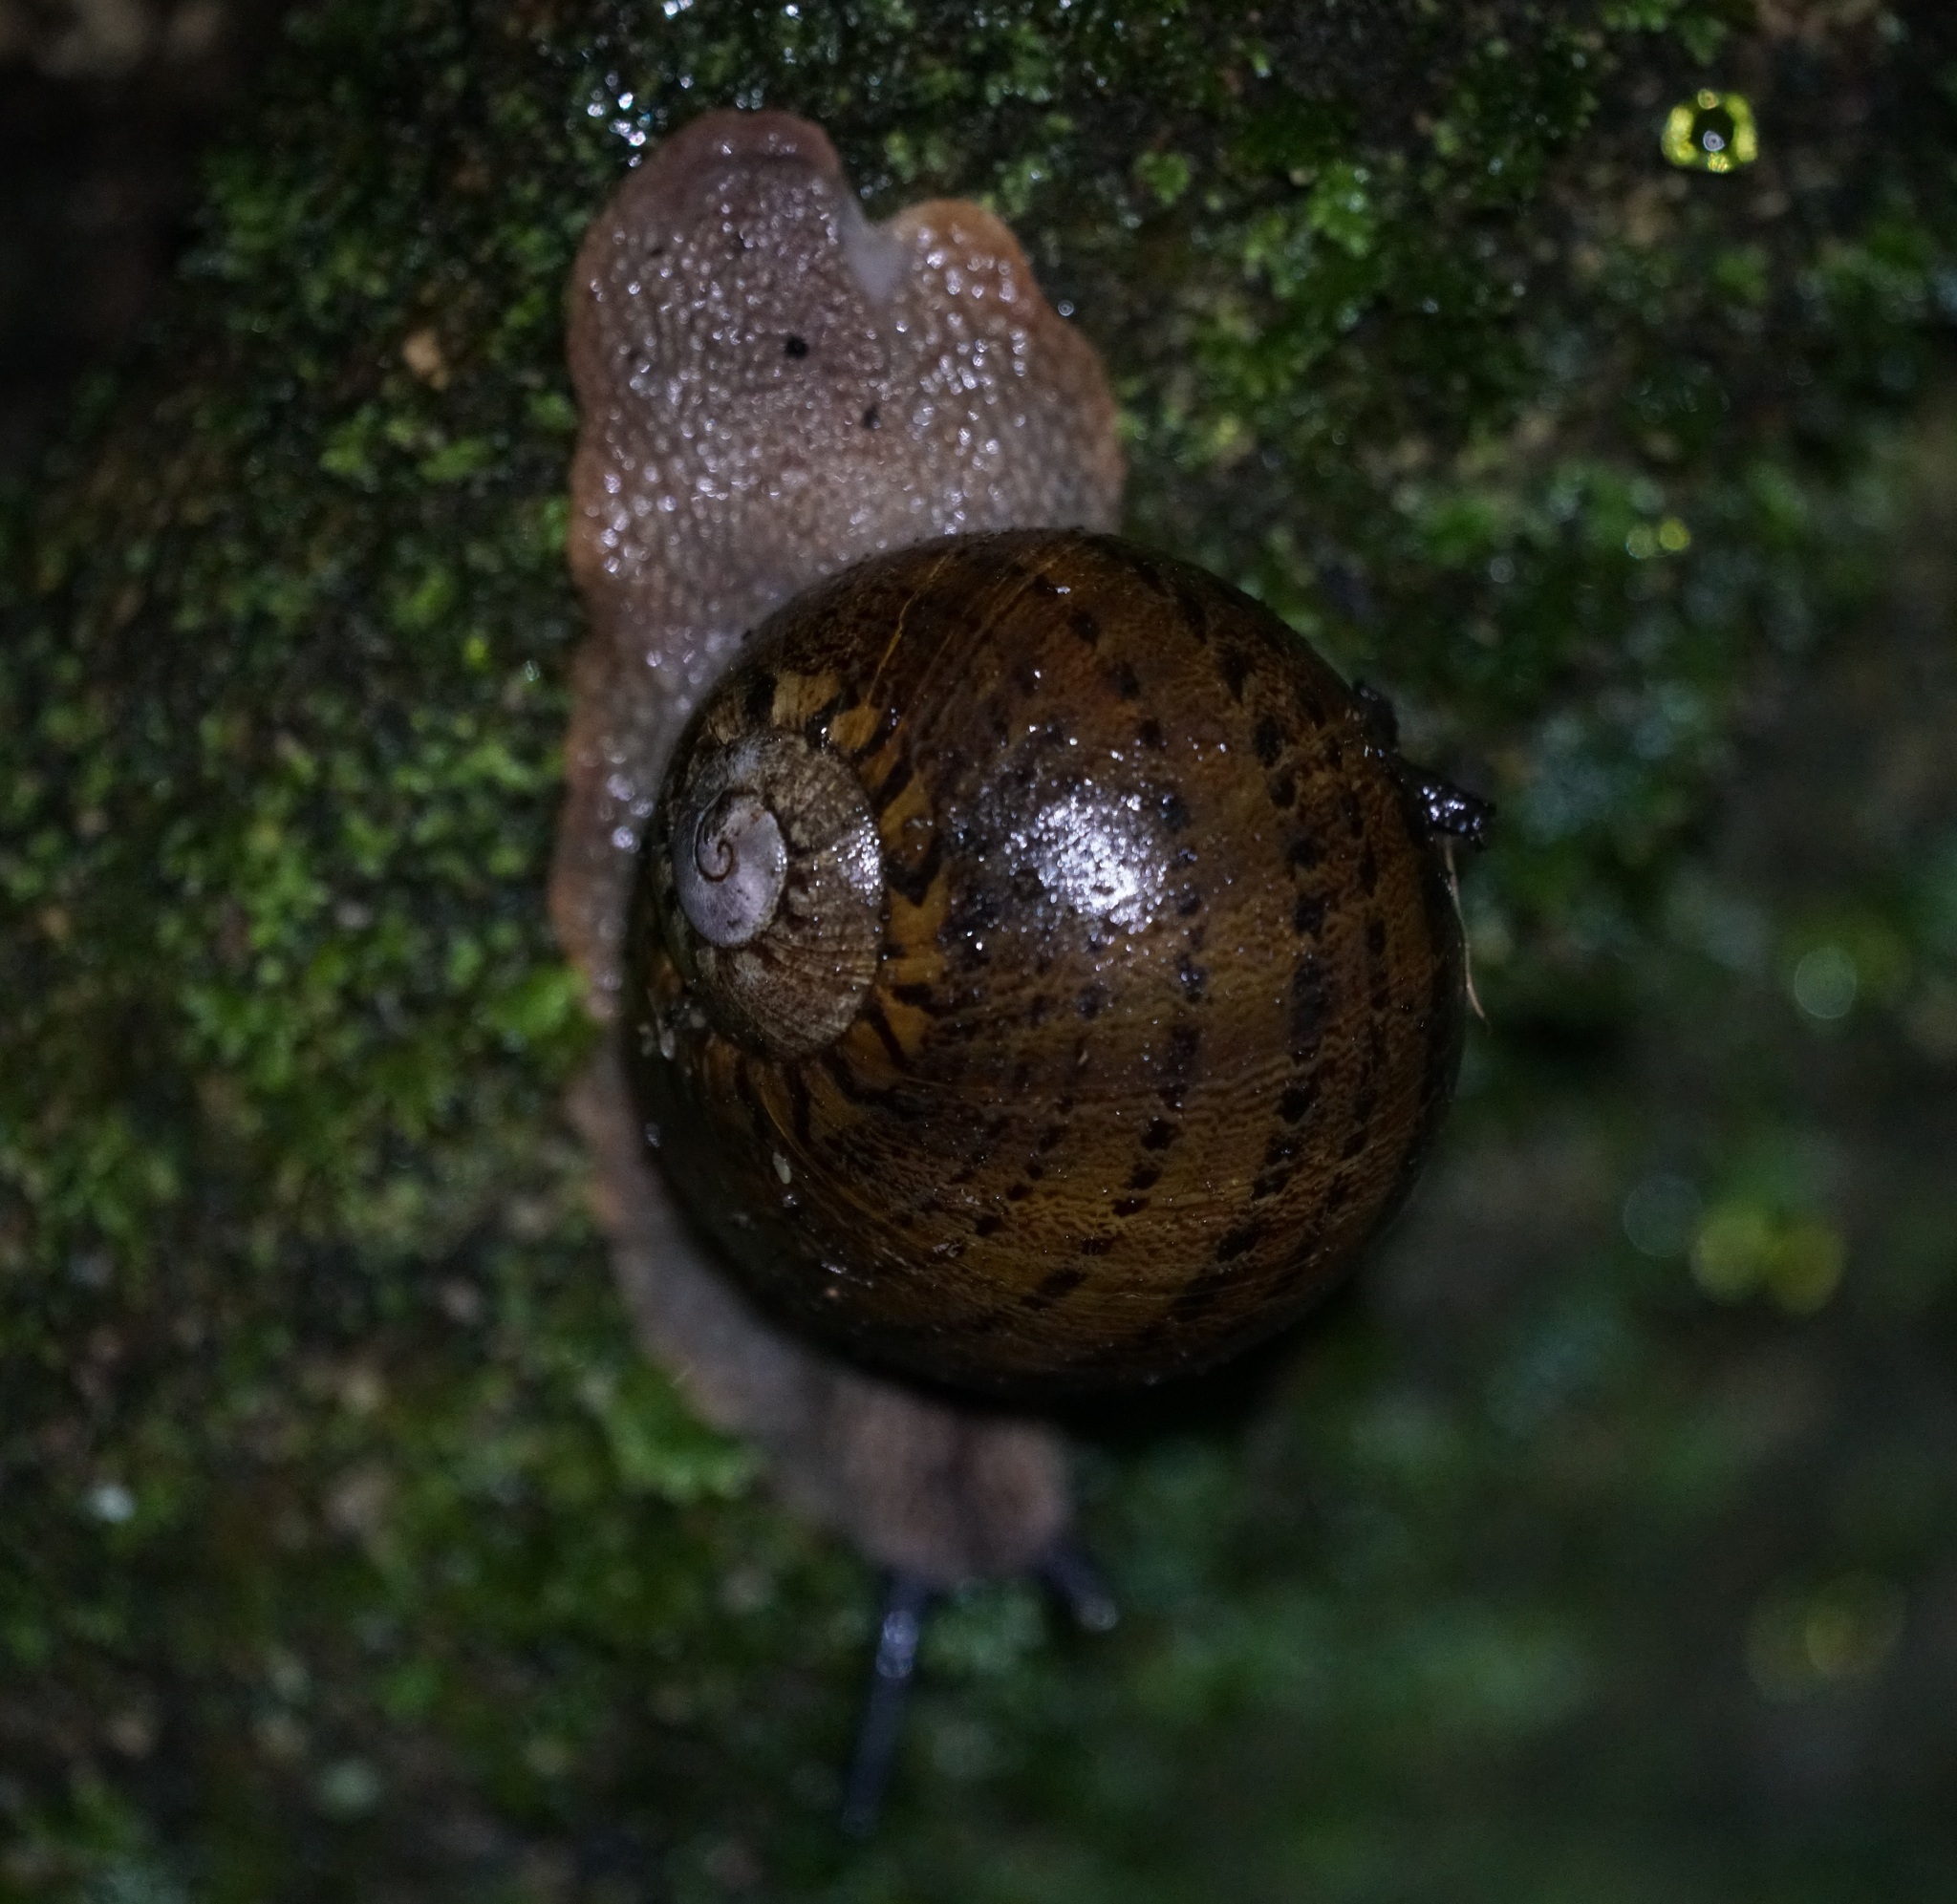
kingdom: Animalia
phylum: Mollusca
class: Gastropoda
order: Stylommatophora
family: Caryodidae
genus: Hedleyella
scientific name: Hedleyella falconeri
